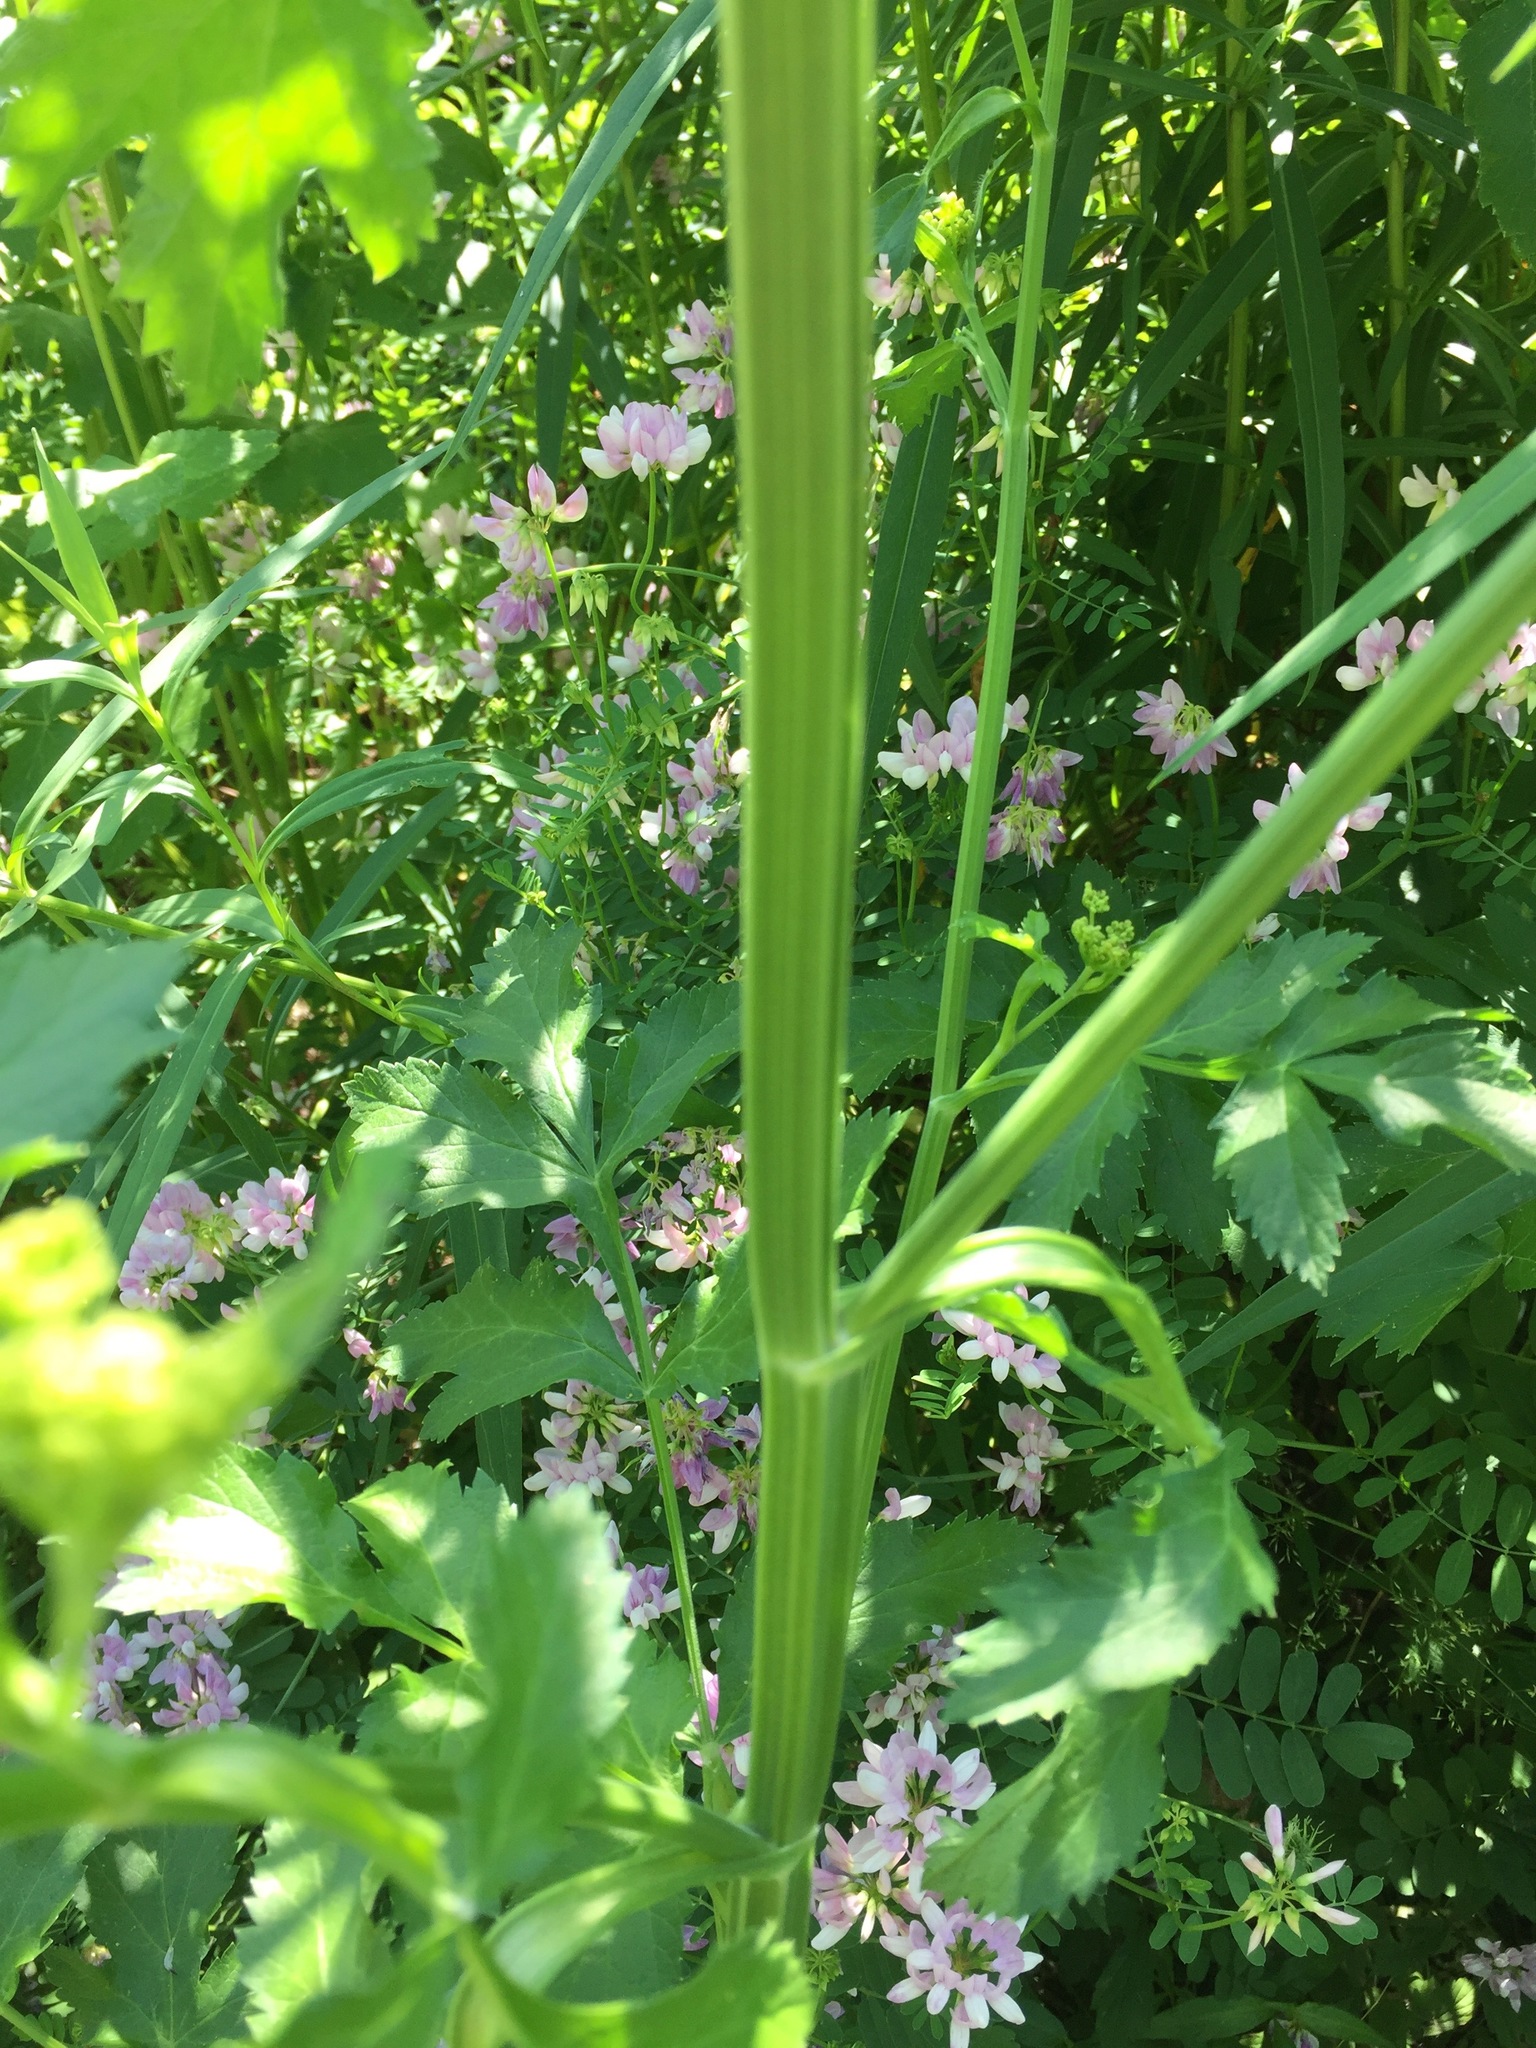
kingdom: Plantae
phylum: Tracheophyta
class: Magnoliopsida
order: Apiales
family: Apiaceae
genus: Pastinaca
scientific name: Pastinaca sativa
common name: Wild parsnip
